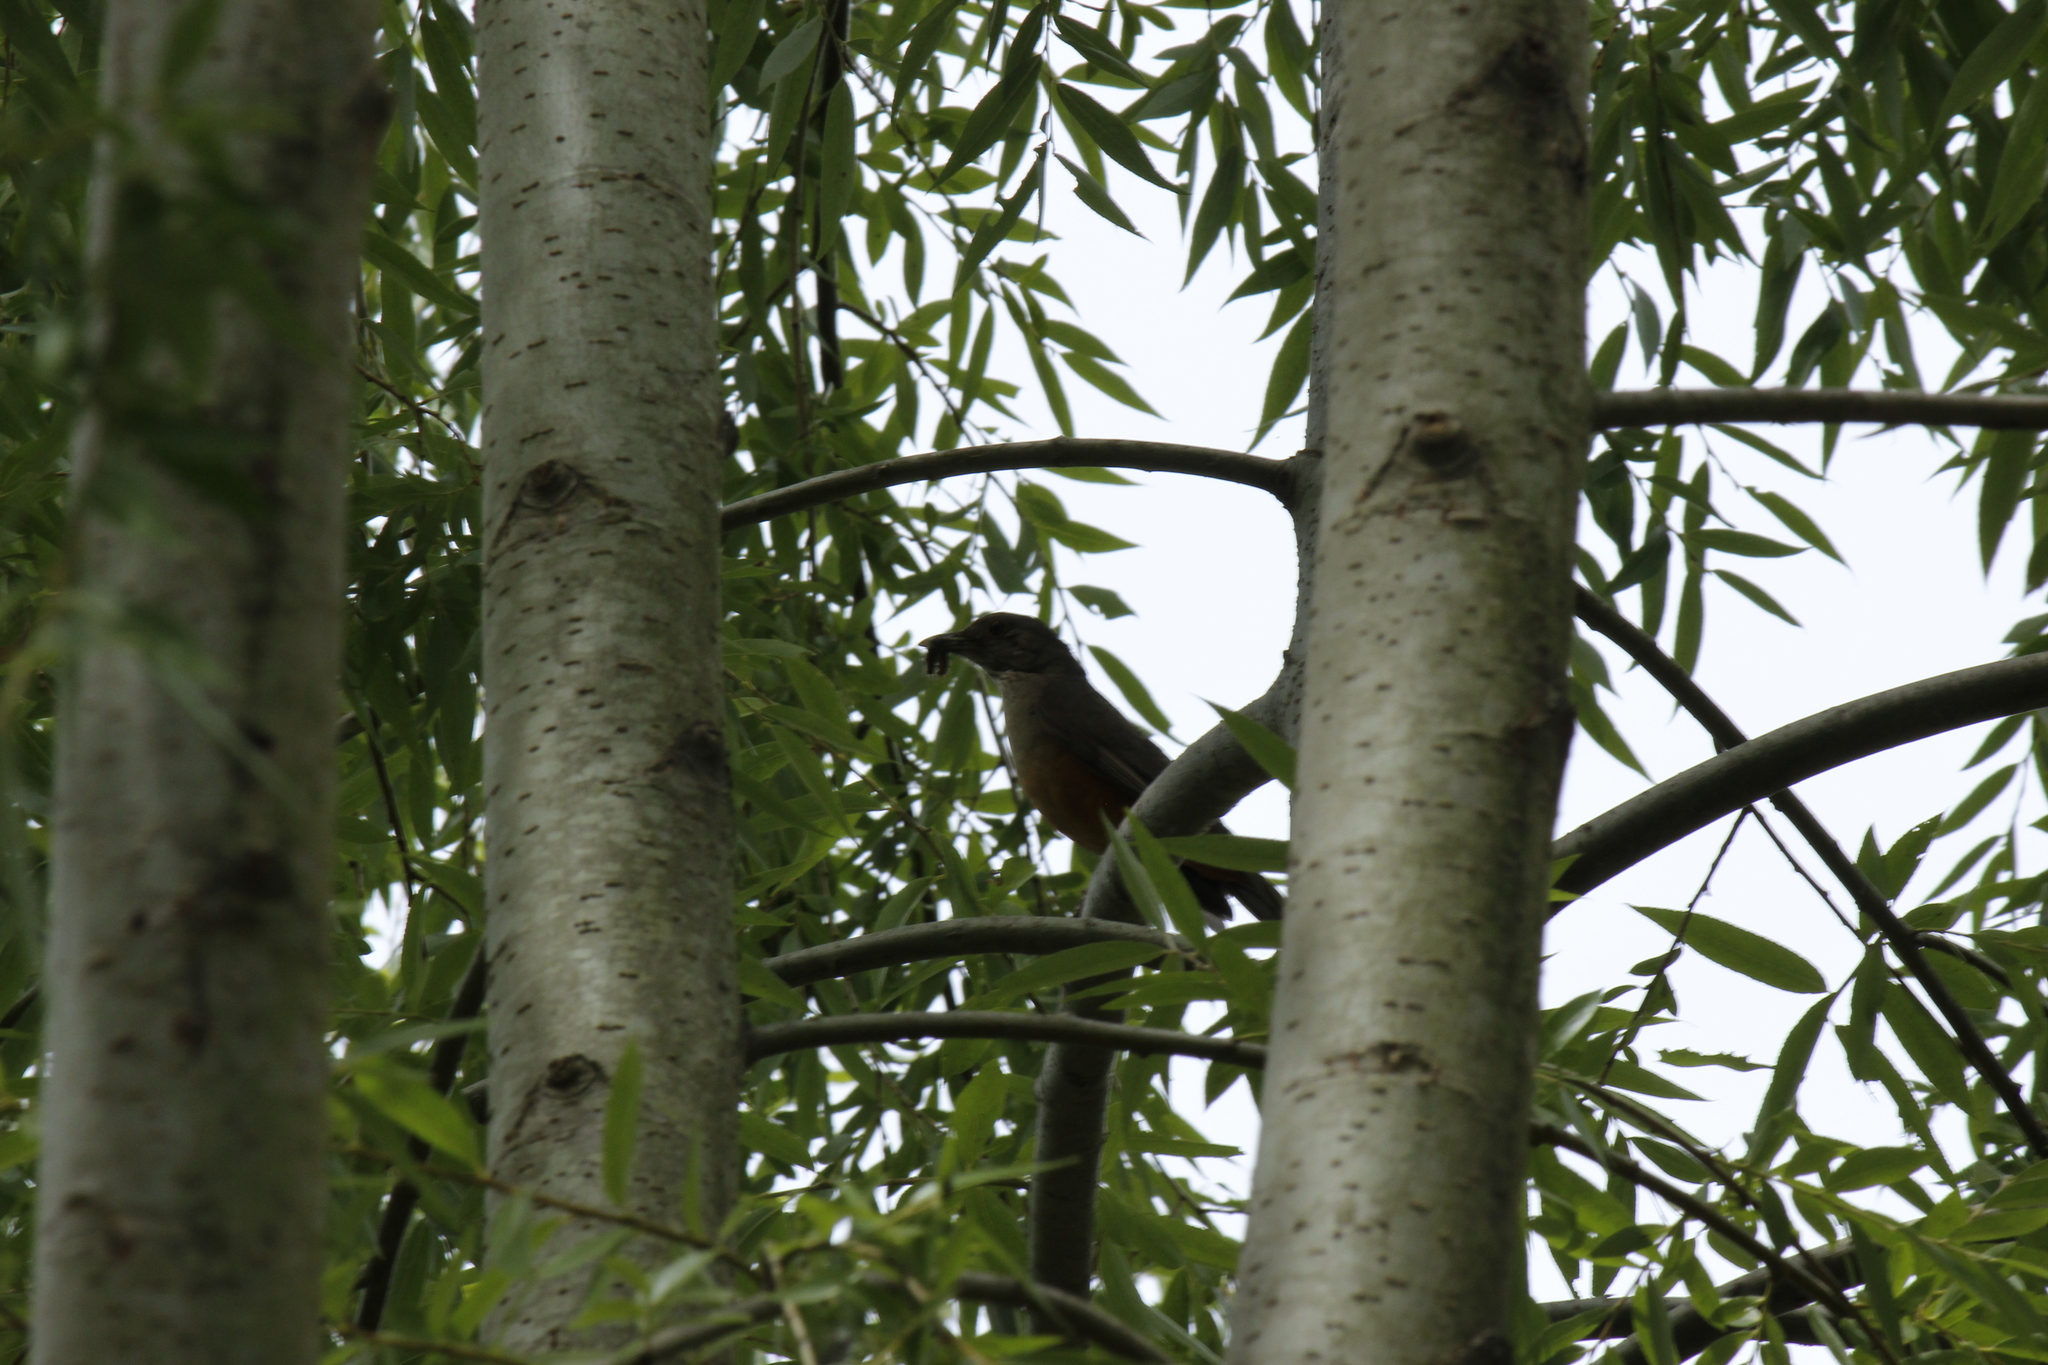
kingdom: Animalia
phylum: Chordata
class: Aves
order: Passeriformes
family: Turdidae
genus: Turdus
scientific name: Turdus rufiventris
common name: Rufous-bellied thrush
